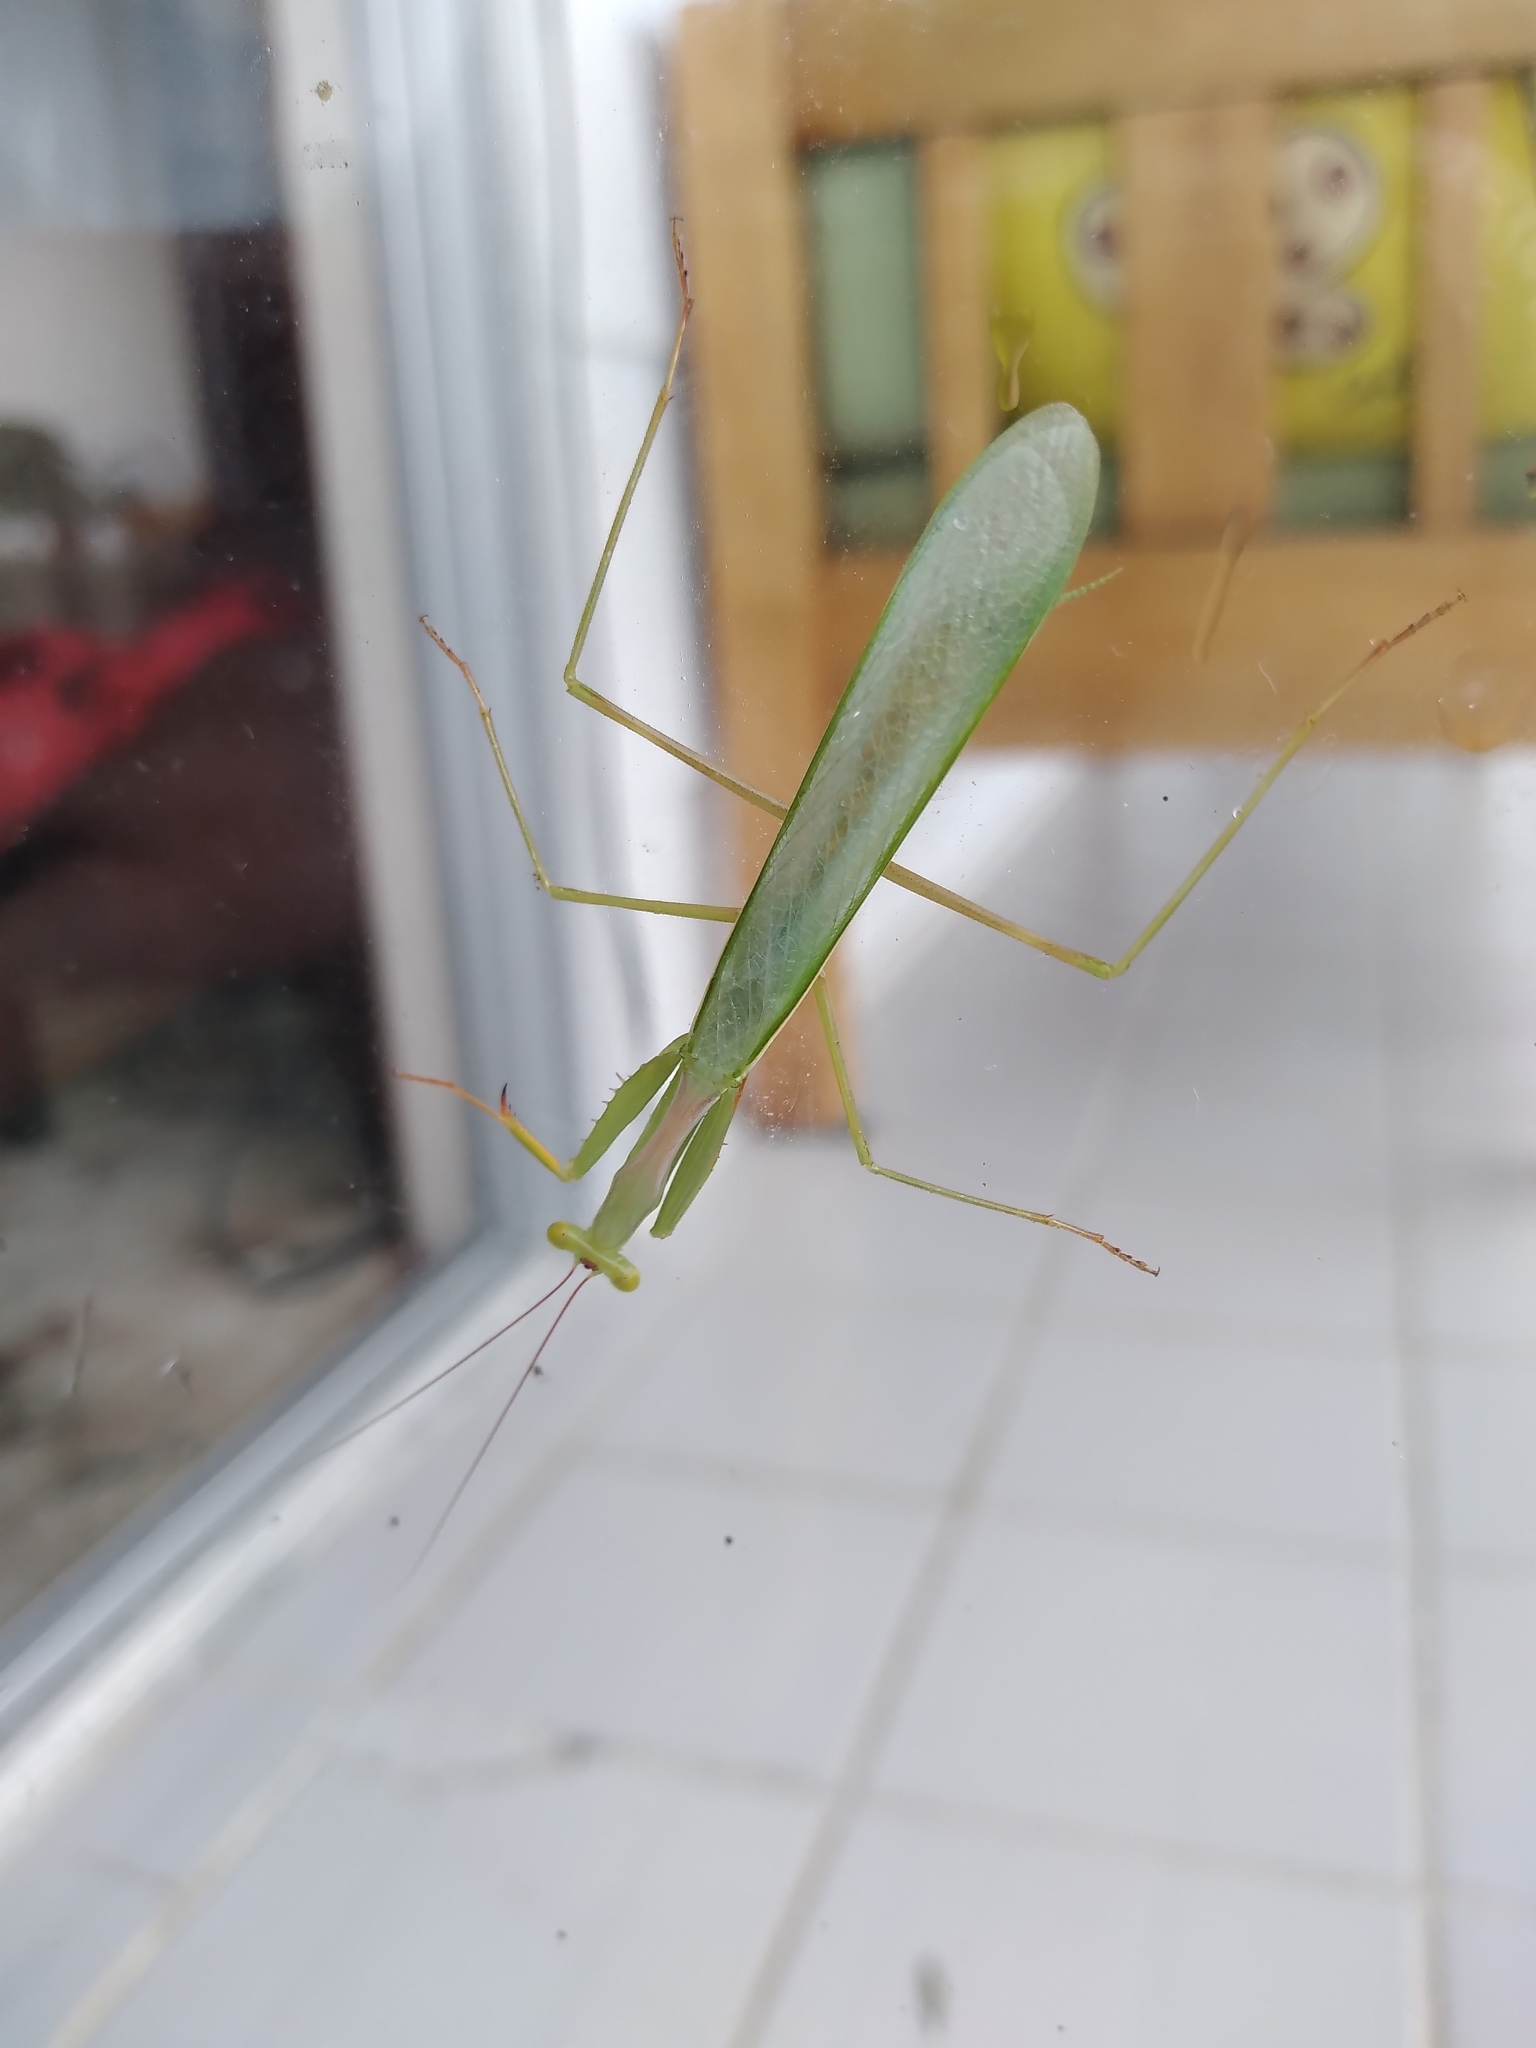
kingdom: Animalia
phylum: Arthropoda
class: Insecta
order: Mantodea
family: Miomantidae
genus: Miomantis
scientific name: Miomantis caffra
